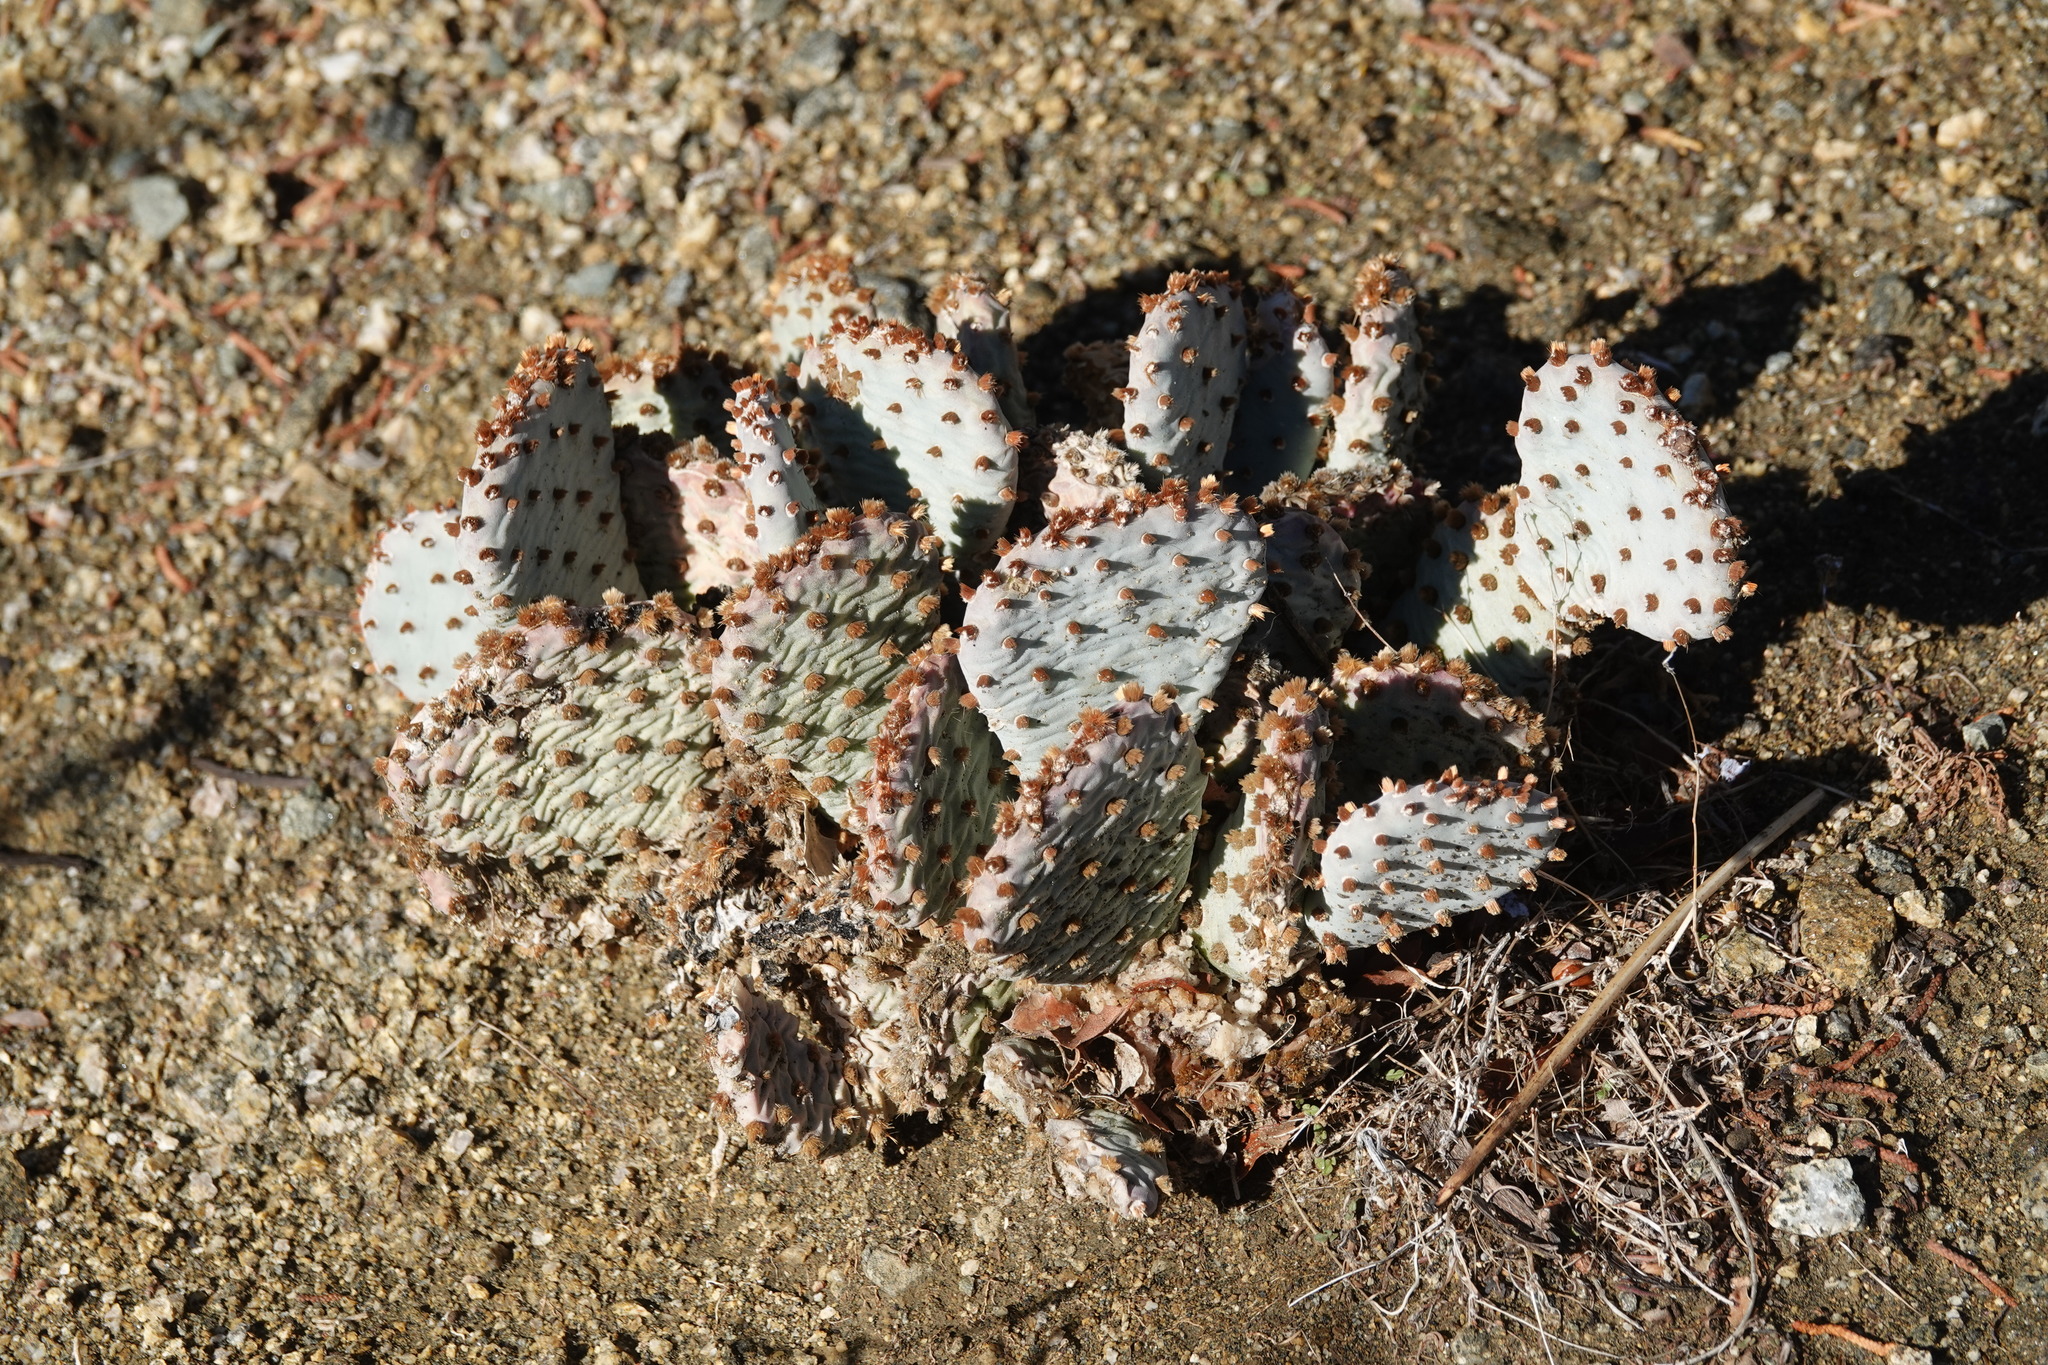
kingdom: Plantae
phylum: Tracheophyta
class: Magnoliopsida
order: Caryophyllales
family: Cactaceae
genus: Opuntia
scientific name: Opuntia basilaris
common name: Beavertail prickly-pear
